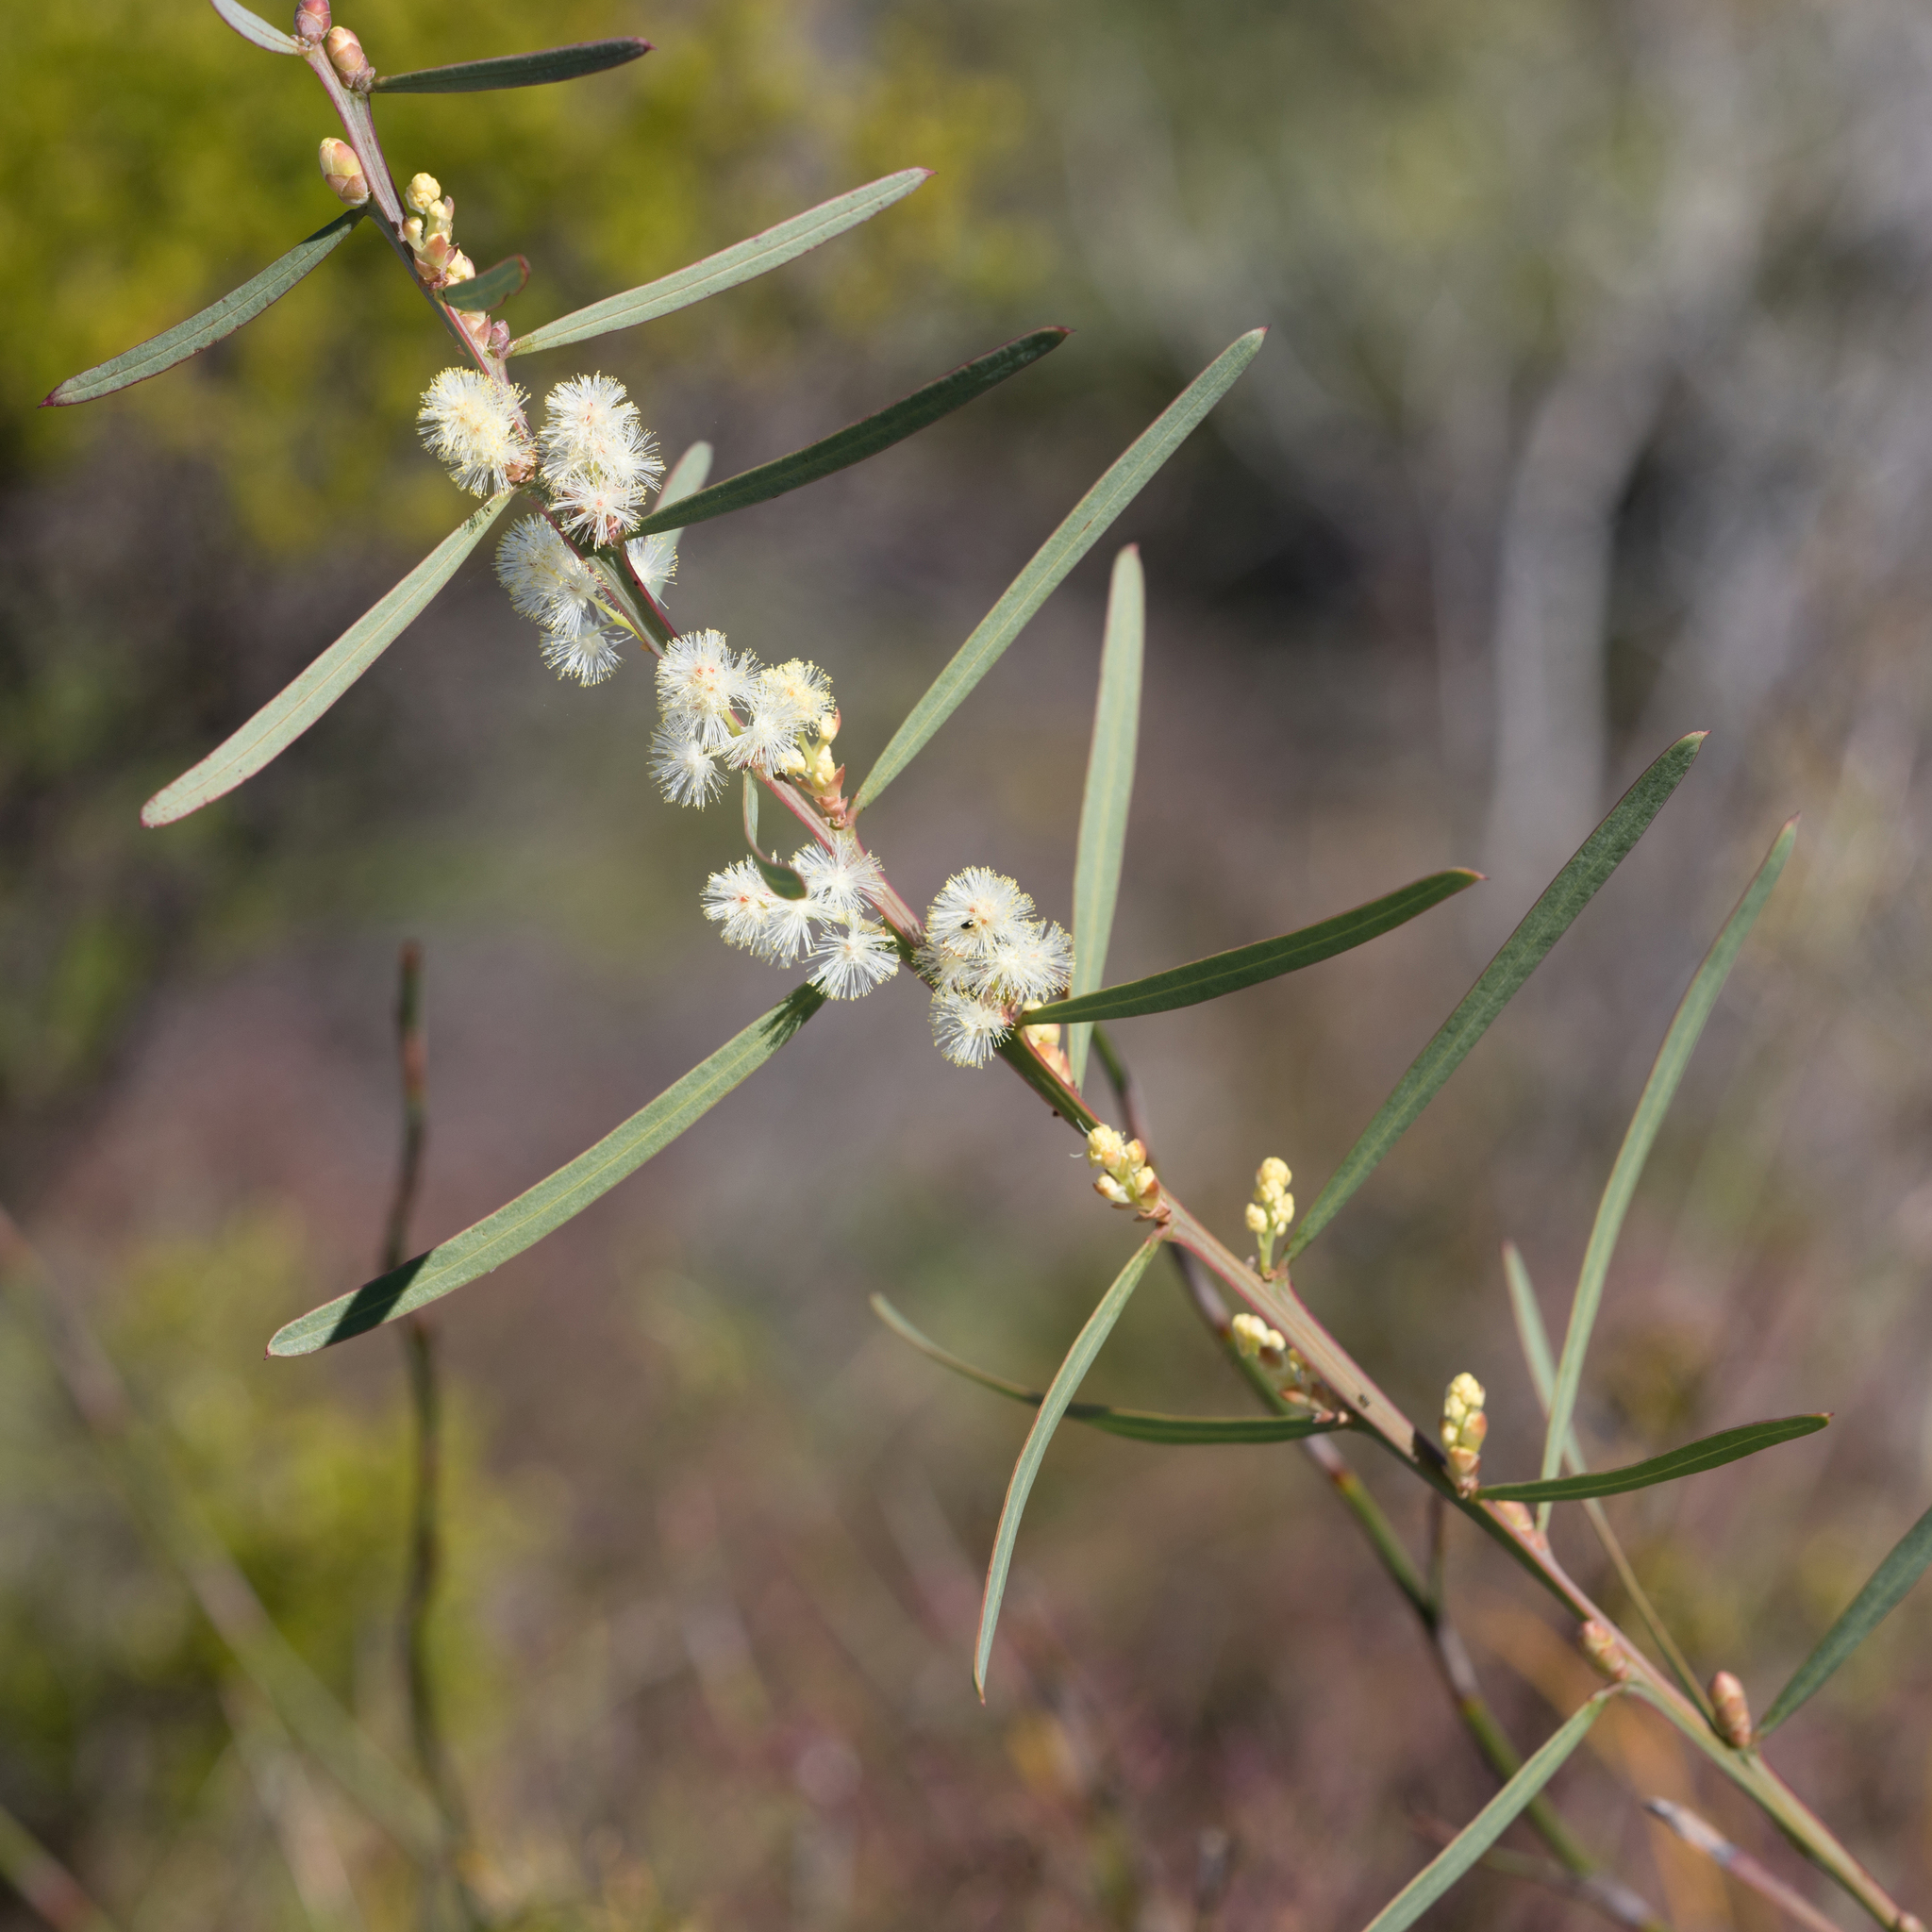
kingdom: Plantae
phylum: Tracheophyta
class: Magnoliopsida
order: Fabales
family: Fabaceae
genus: Acacia
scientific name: Acacia suaveolens
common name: Sweet acacia
